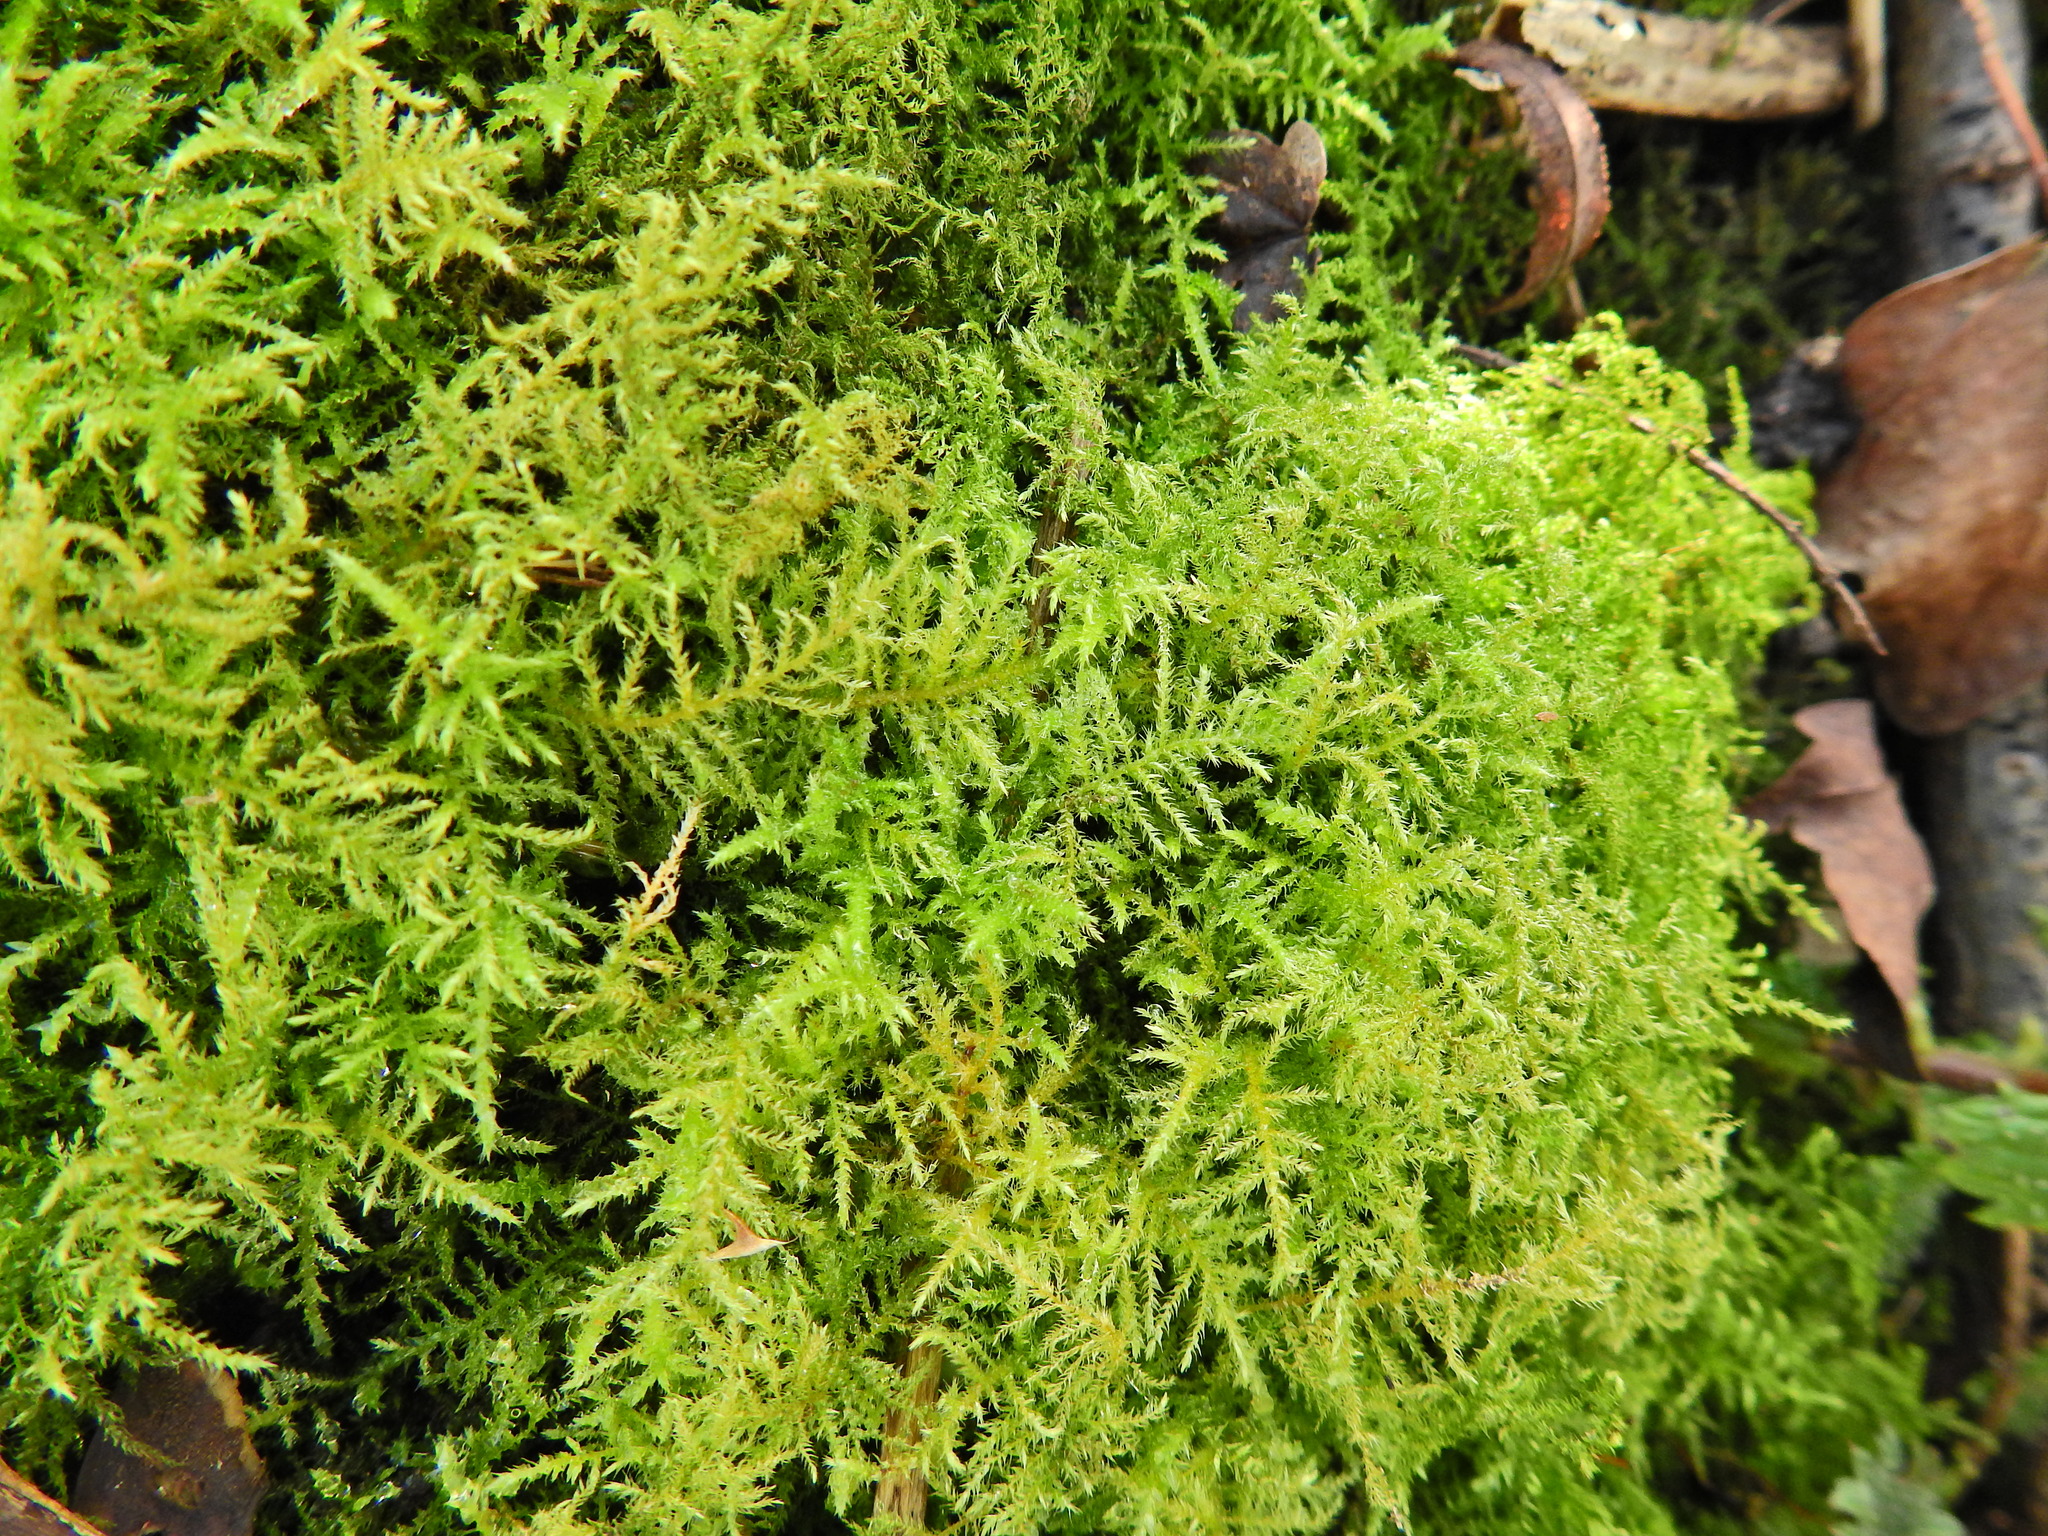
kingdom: Plantae
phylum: Bryophyta
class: Bryopsida
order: Hypnales
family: Brachytheciaceae
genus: Kindbergia
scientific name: Kindbergia praelonga
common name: Slender beaked moss
